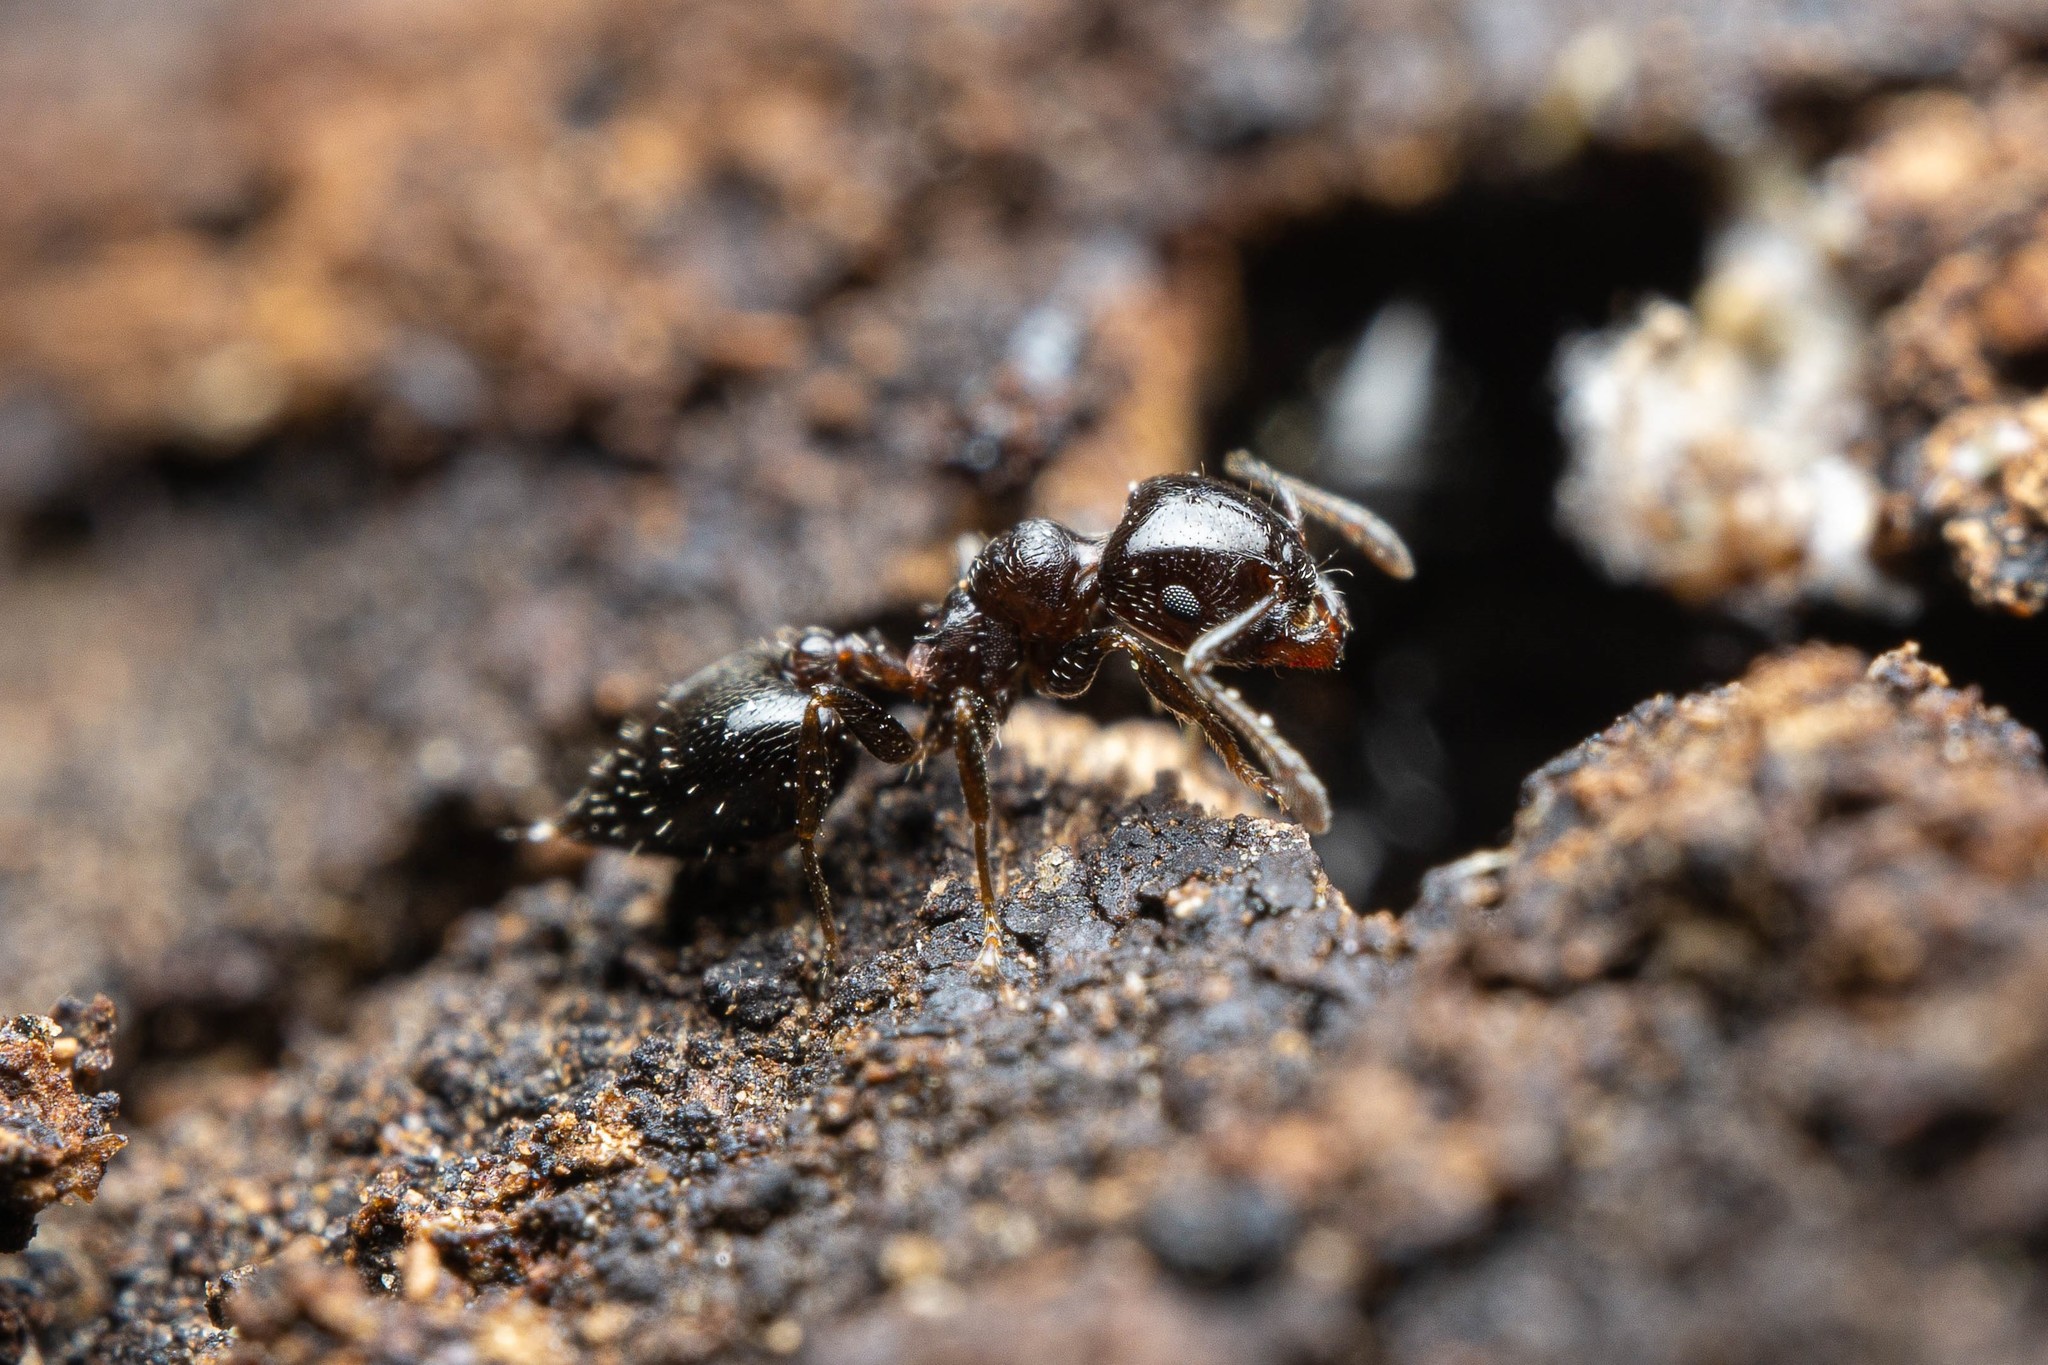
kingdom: Animalia
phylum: Arthropoda
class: Insecta
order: Hymenoptera
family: Formicidae
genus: Crematogaster
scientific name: Crematogaster torosa
